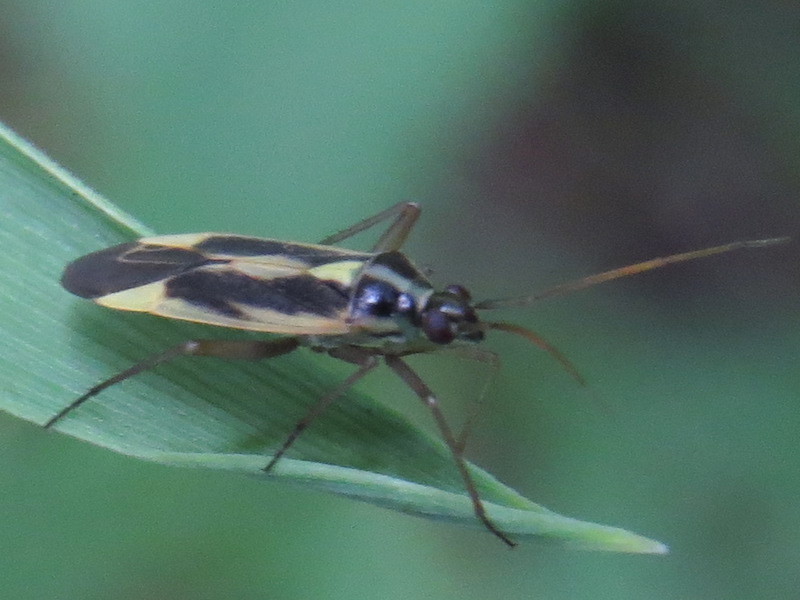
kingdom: Animalia
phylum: Arthropoda
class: Insecta
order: Hemiptera
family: Miridae
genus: Stenotus
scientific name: Stenotus binotatus
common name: Plant bug
